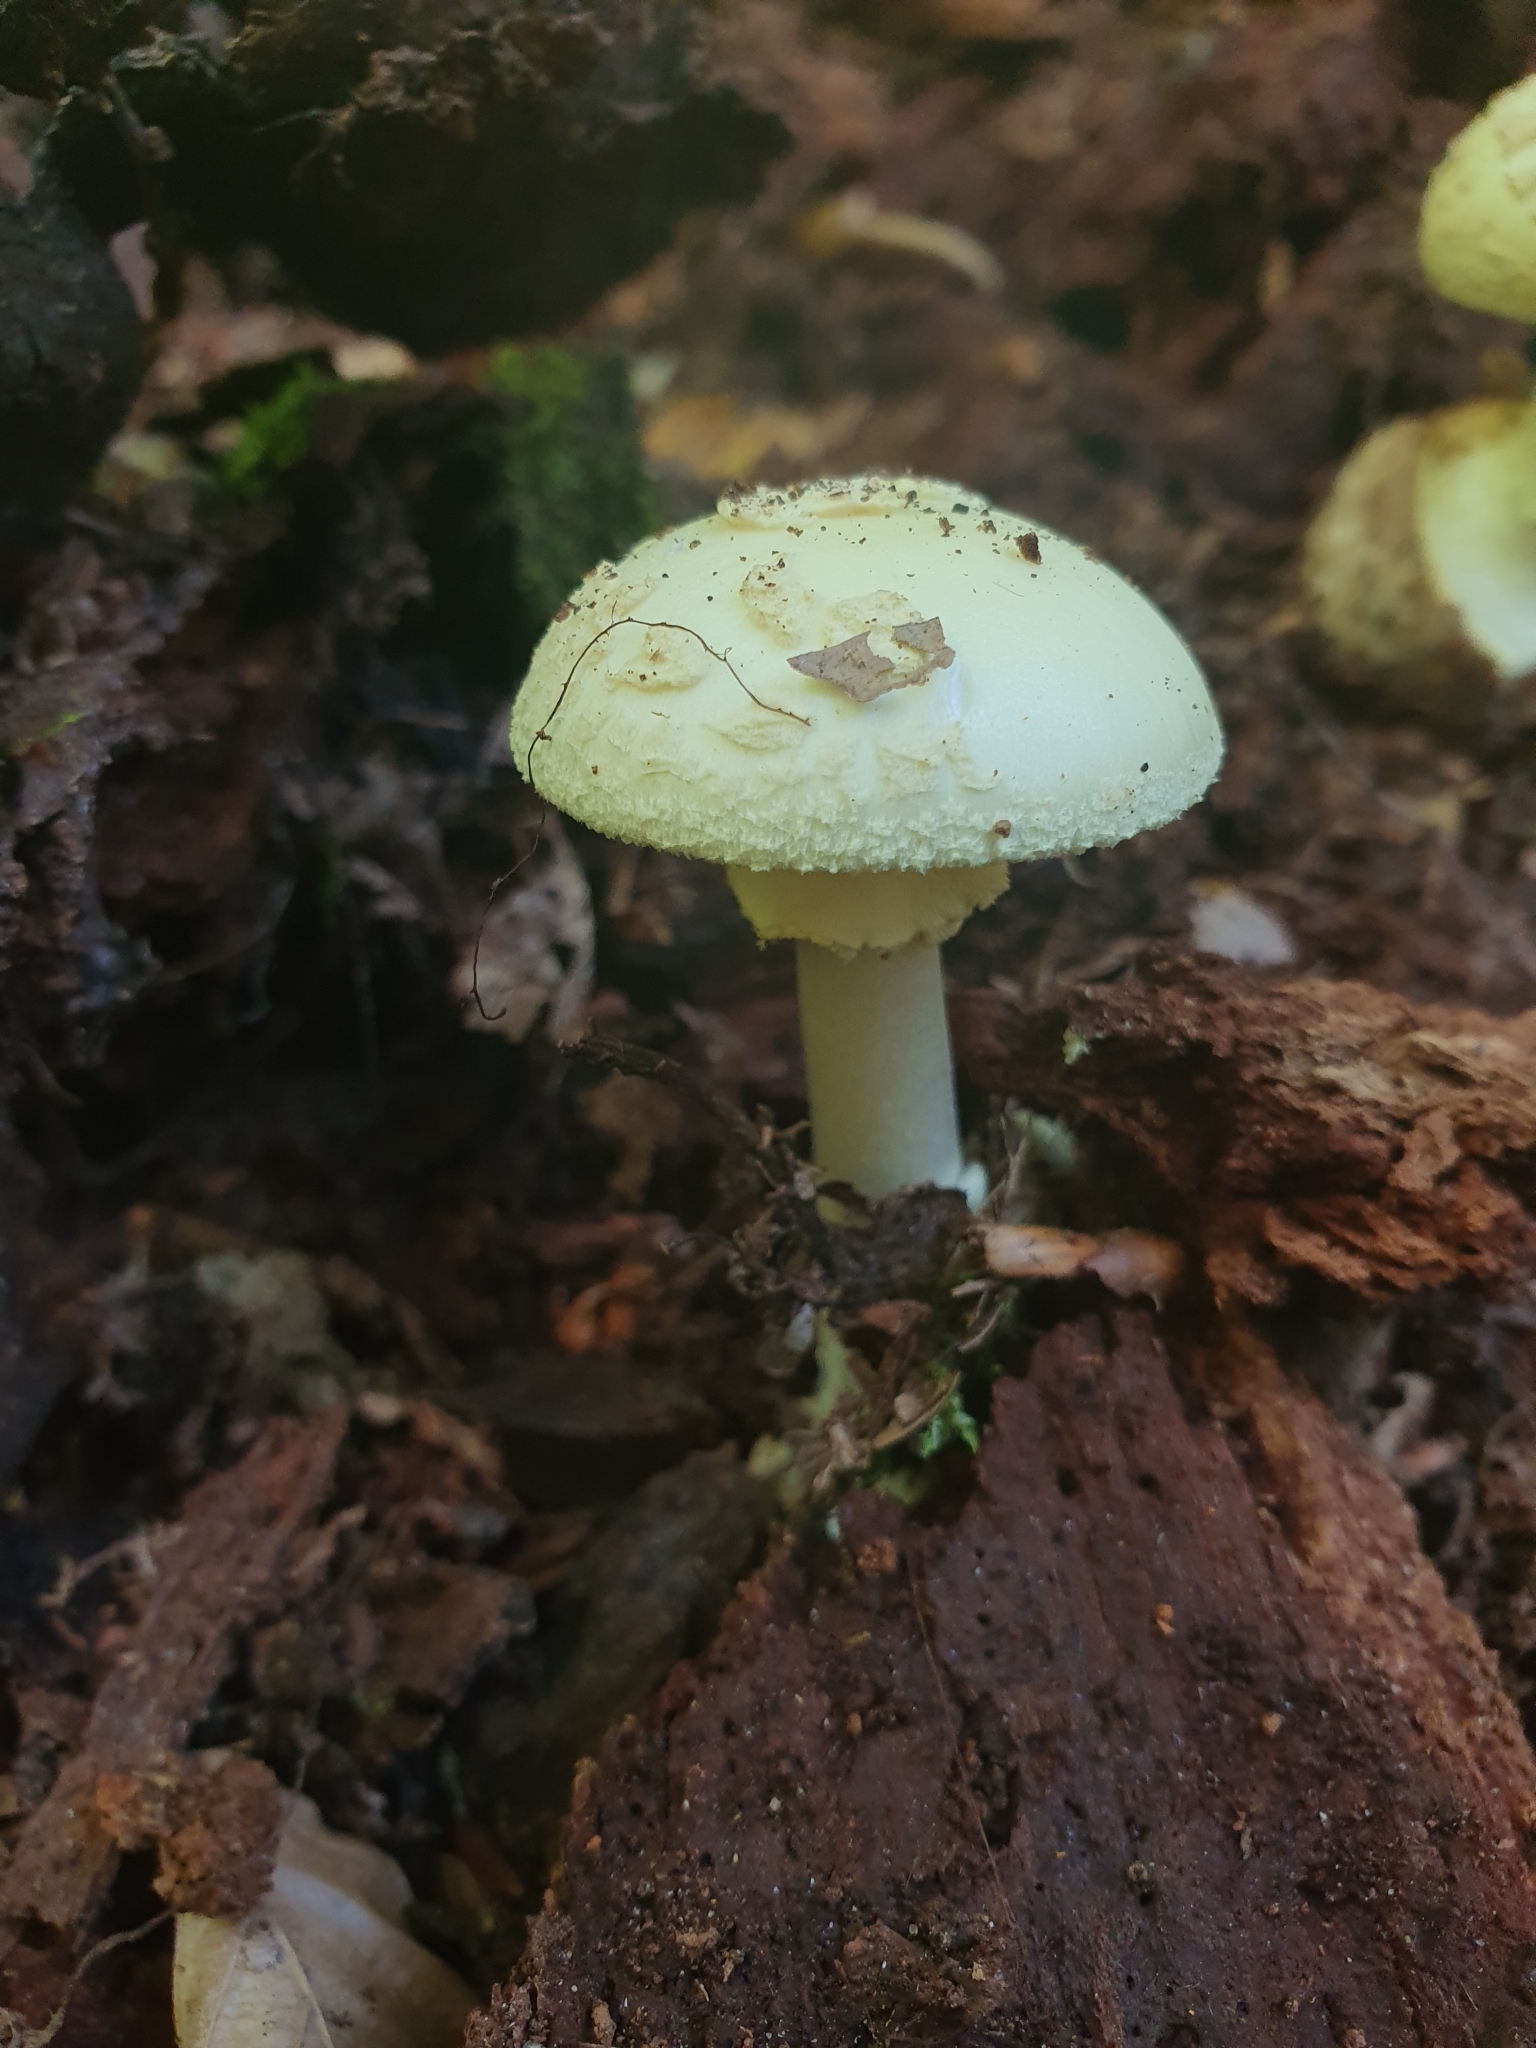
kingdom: Fungi
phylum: Basidiomycota
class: Agaricomycetes
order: Agaricales
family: Amanitaceae
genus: Amanita
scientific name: Amanita citrina
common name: False death-cap
